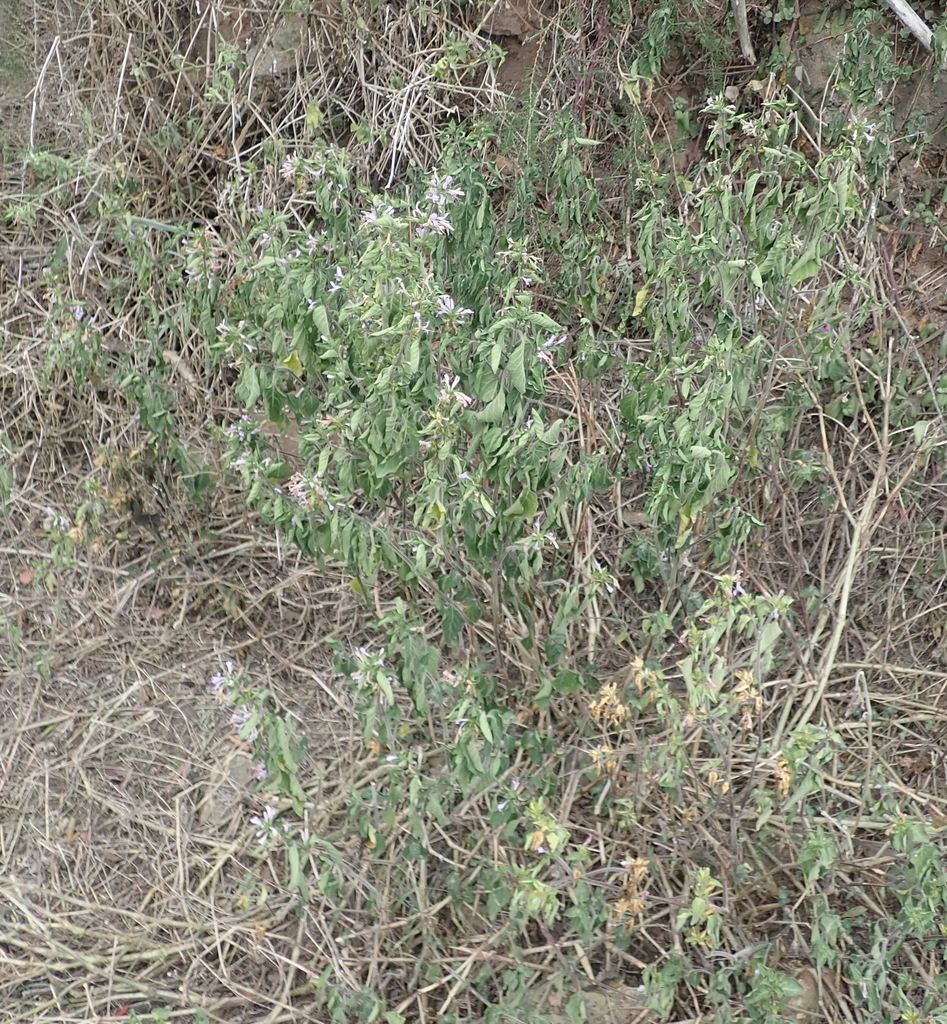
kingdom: Plantae
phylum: Tracheophyta
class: Magnoliopsida
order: Lamiales
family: Acanthaceae
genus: Hypoestes
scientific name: Hypoestes aristata
